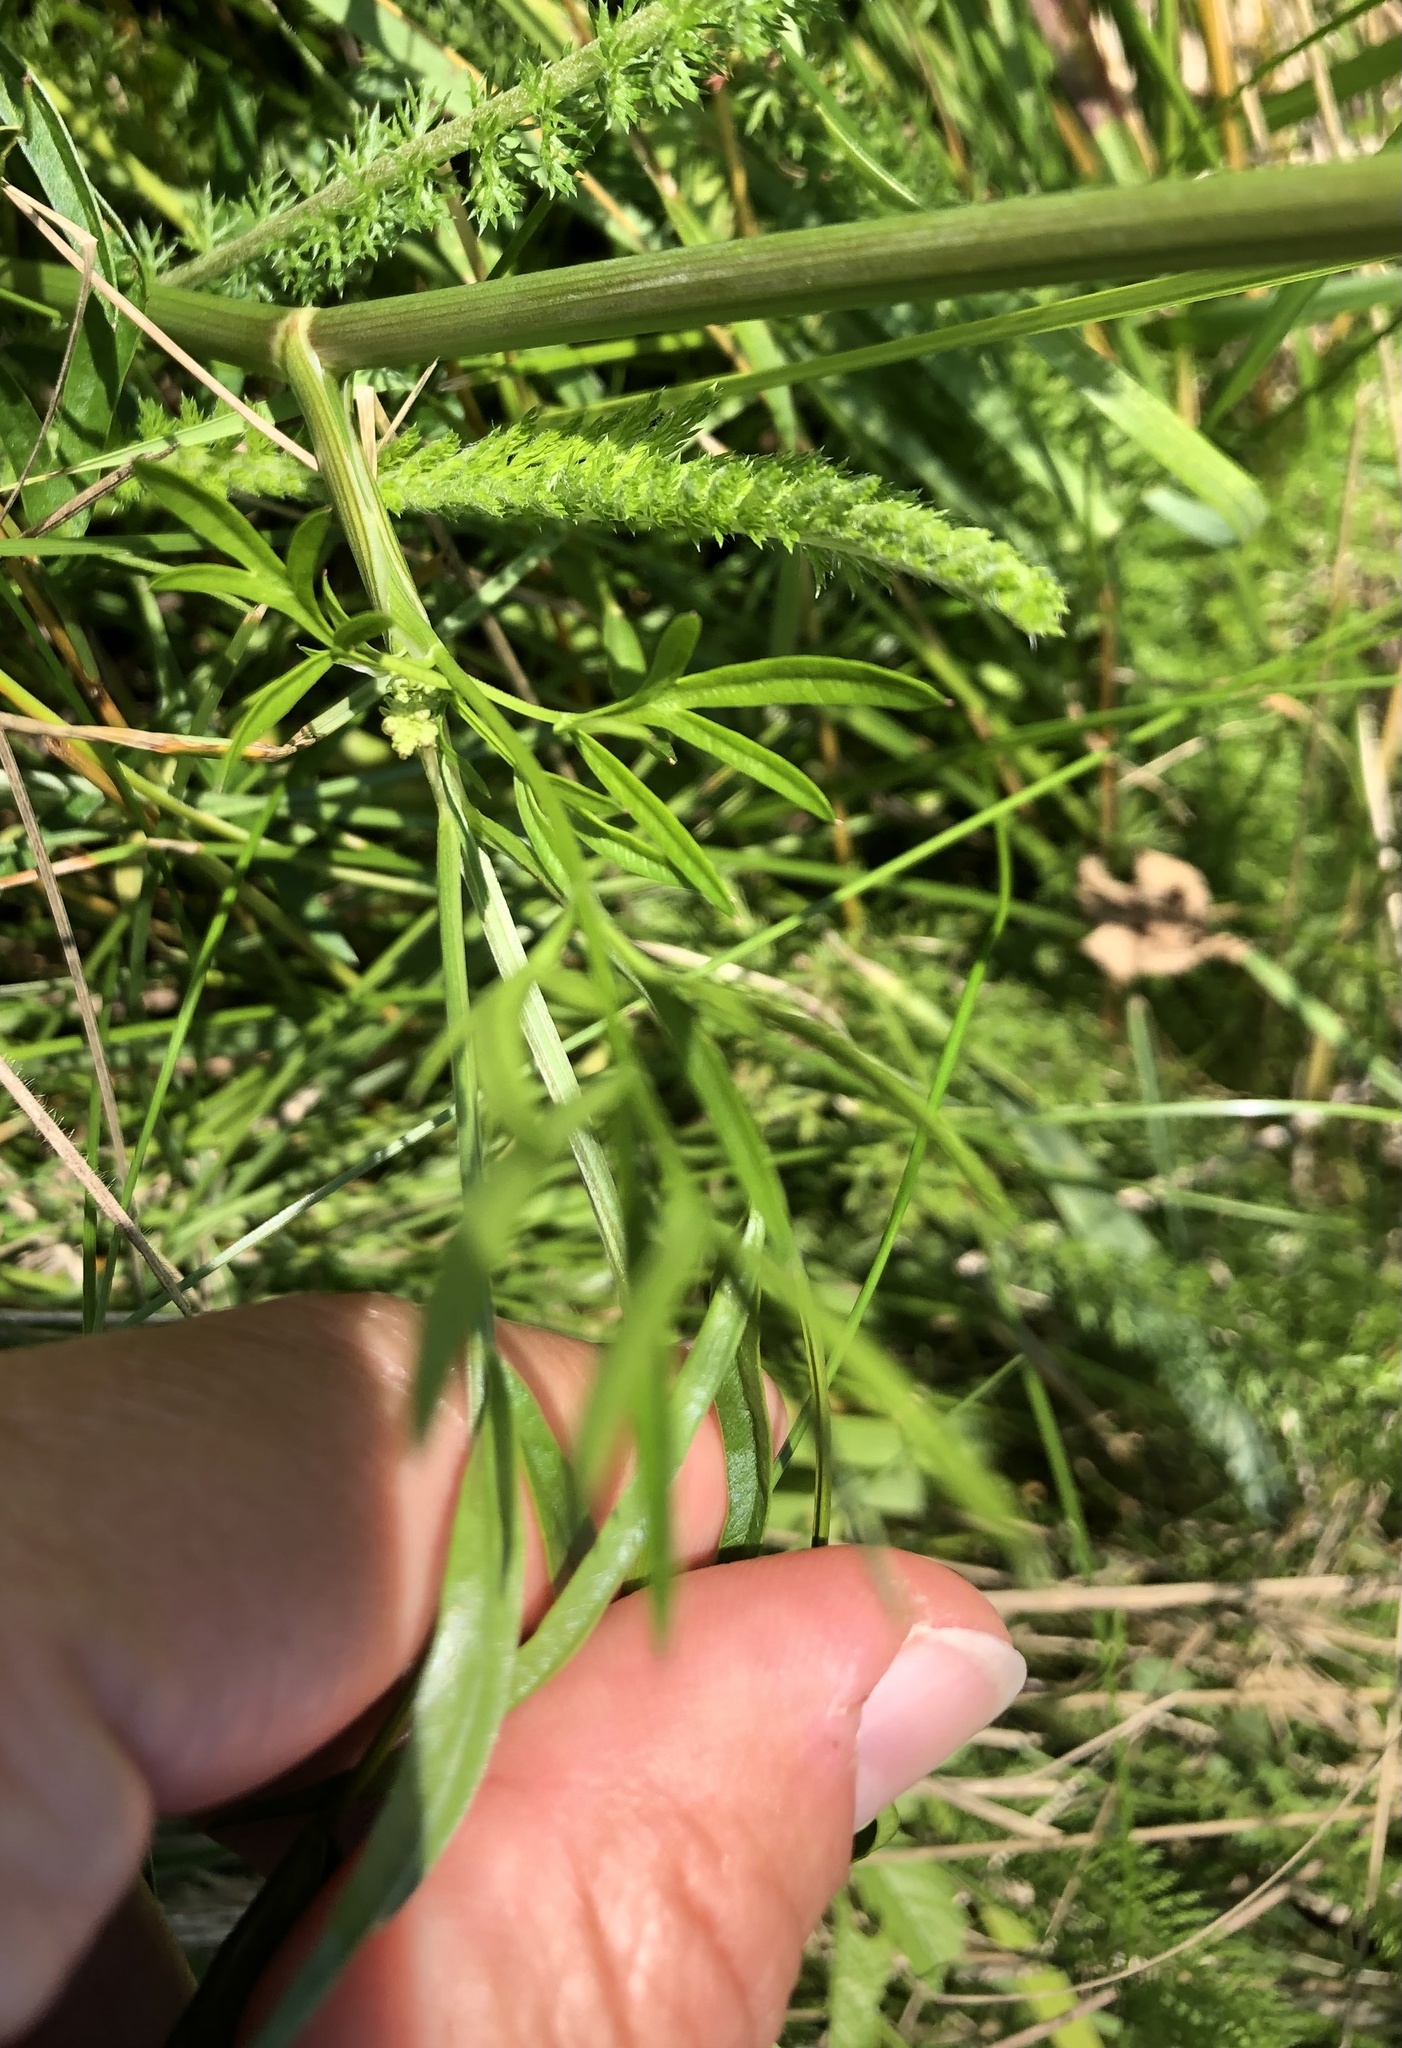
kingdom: Plantae
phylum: Tracheophyta
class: Magnoliopsida
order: Apiales
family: Apiaceae
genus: Silaum
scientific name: Silaum silaus
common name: Pepper-saxifrage
